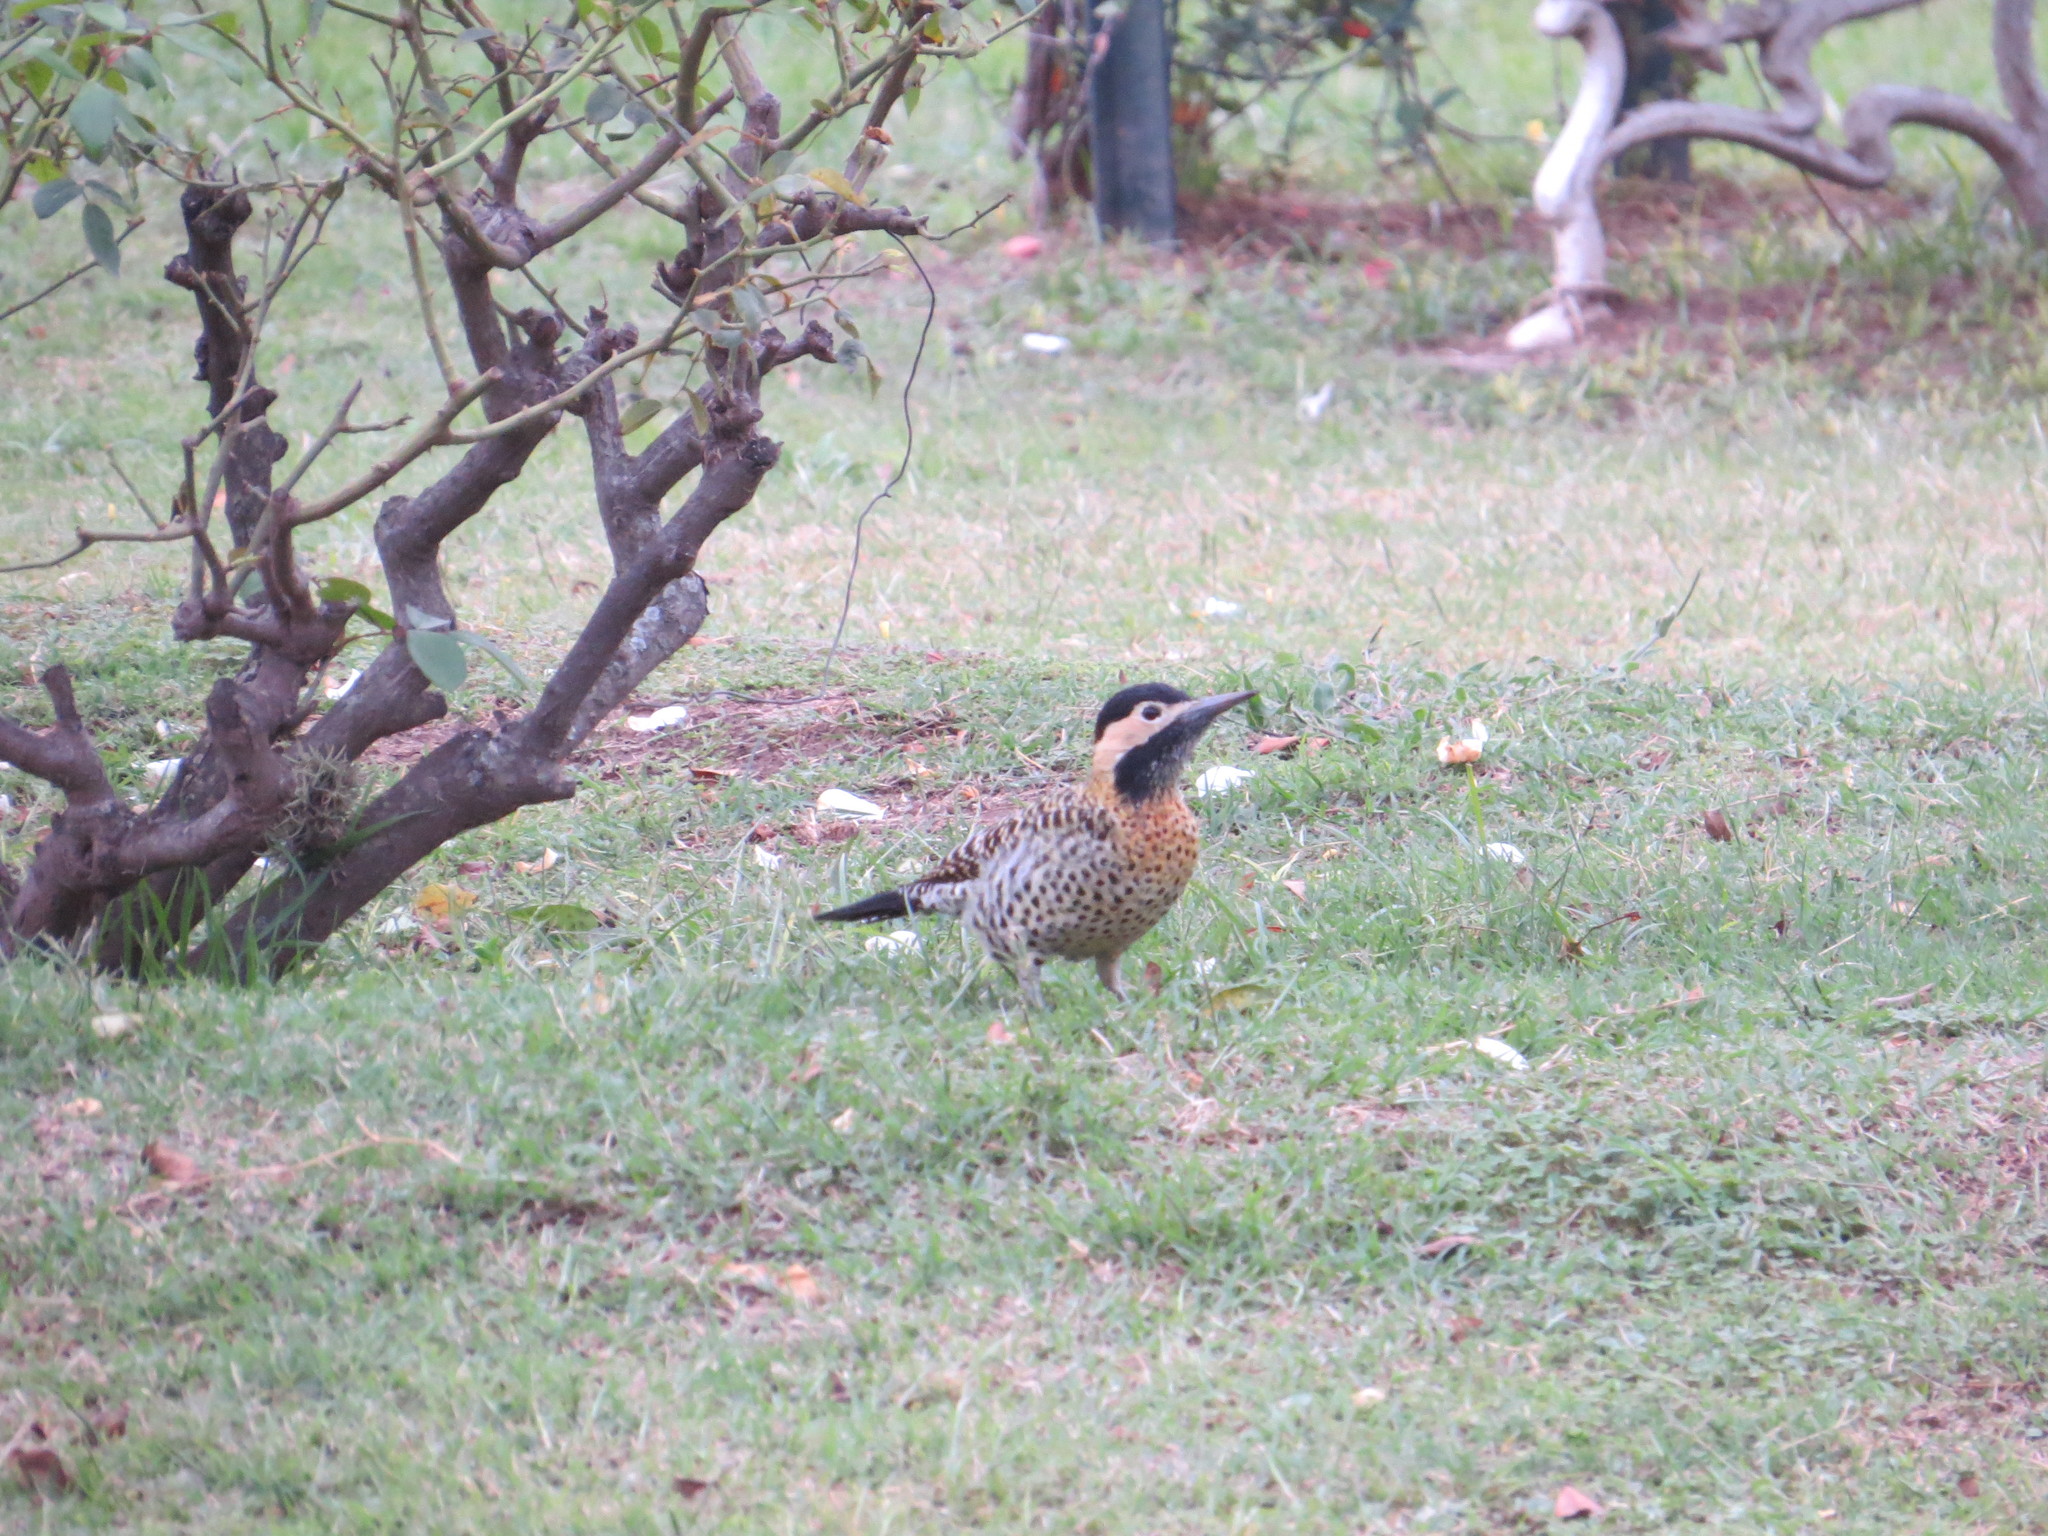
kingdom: Animalia
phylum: Chordata
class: Aves
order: Piciformes
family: Picidae
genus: Colaptes
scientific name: Colaptes melanochloros
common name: Green-barred woodpecker
